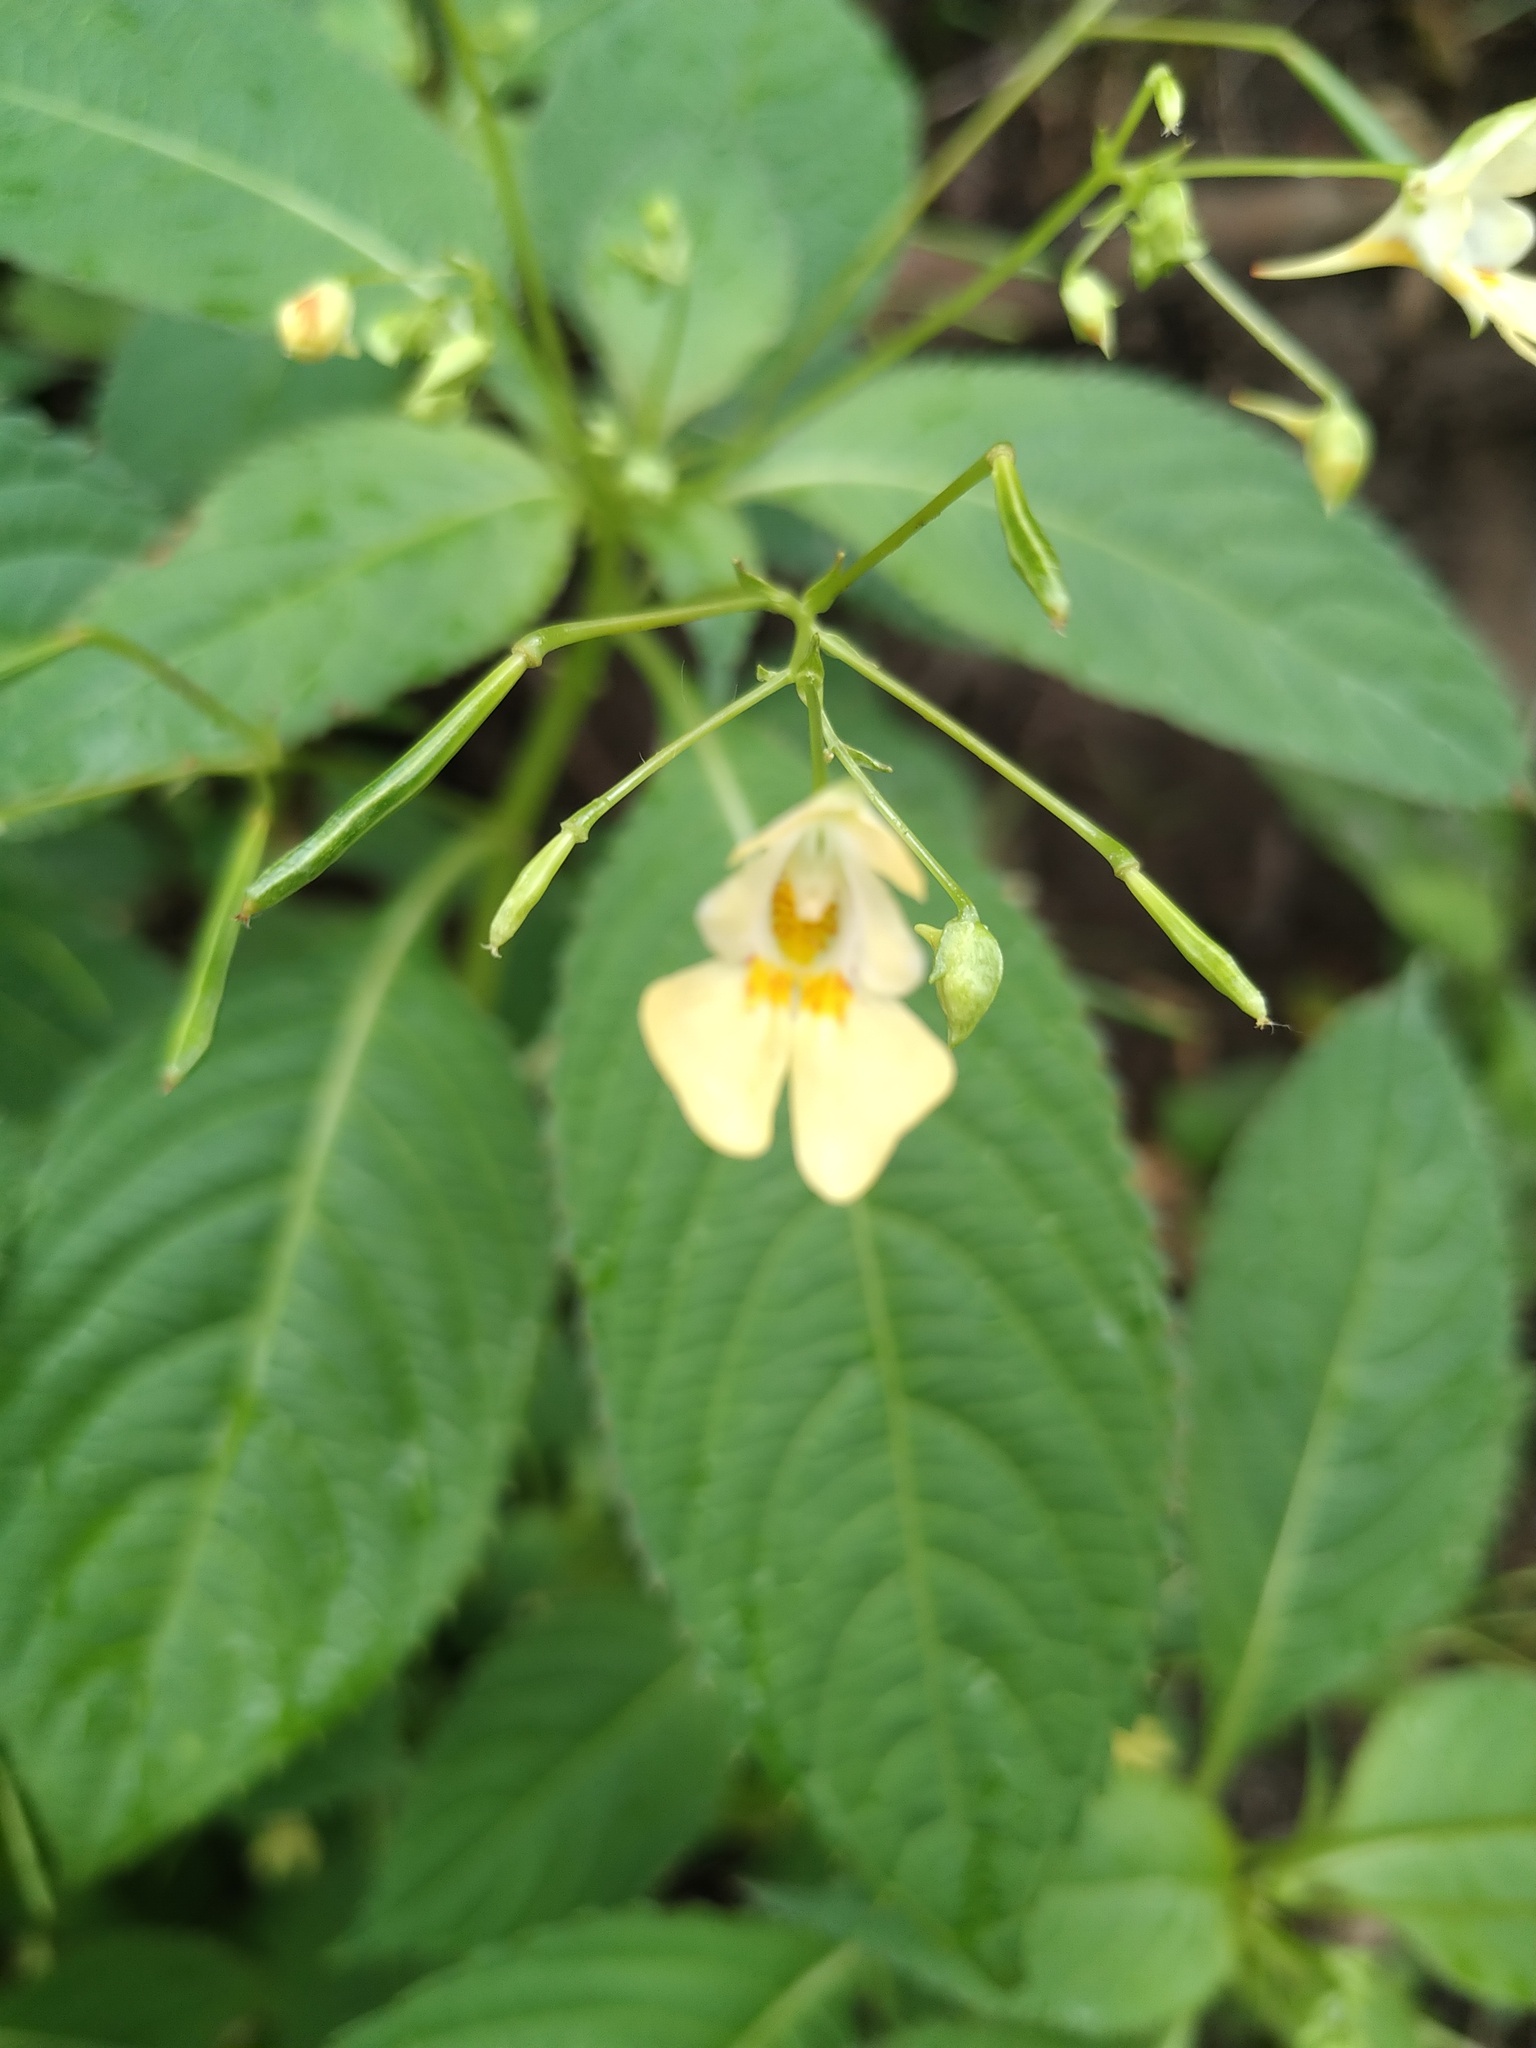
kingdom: Plantae
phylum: Tracheophyta
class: Magnoliopsida
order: Ericales
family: Balsaminaceae
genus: Impatiens
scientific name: Impatiens parviflora
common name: Small balsam
